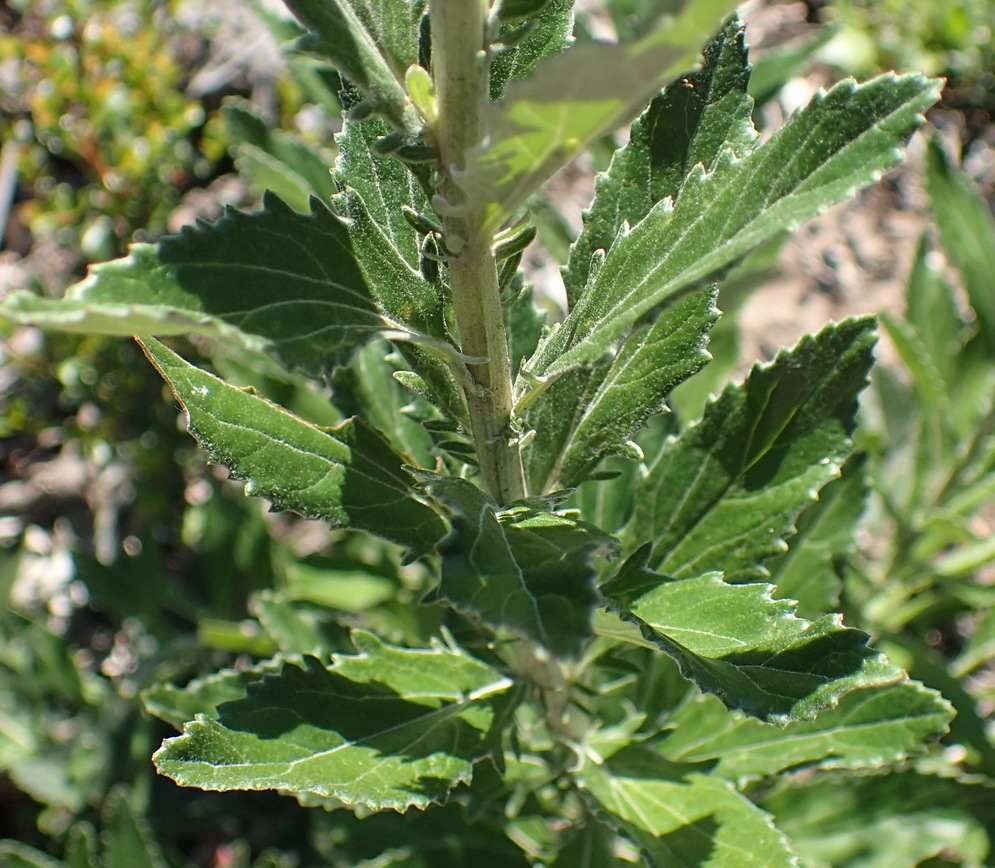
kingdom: Plantae
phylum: Tracheophyta
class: Magnoliopsida
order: Asterales
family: Asteraceae
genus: Senecio
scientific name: Senecio crenatus
